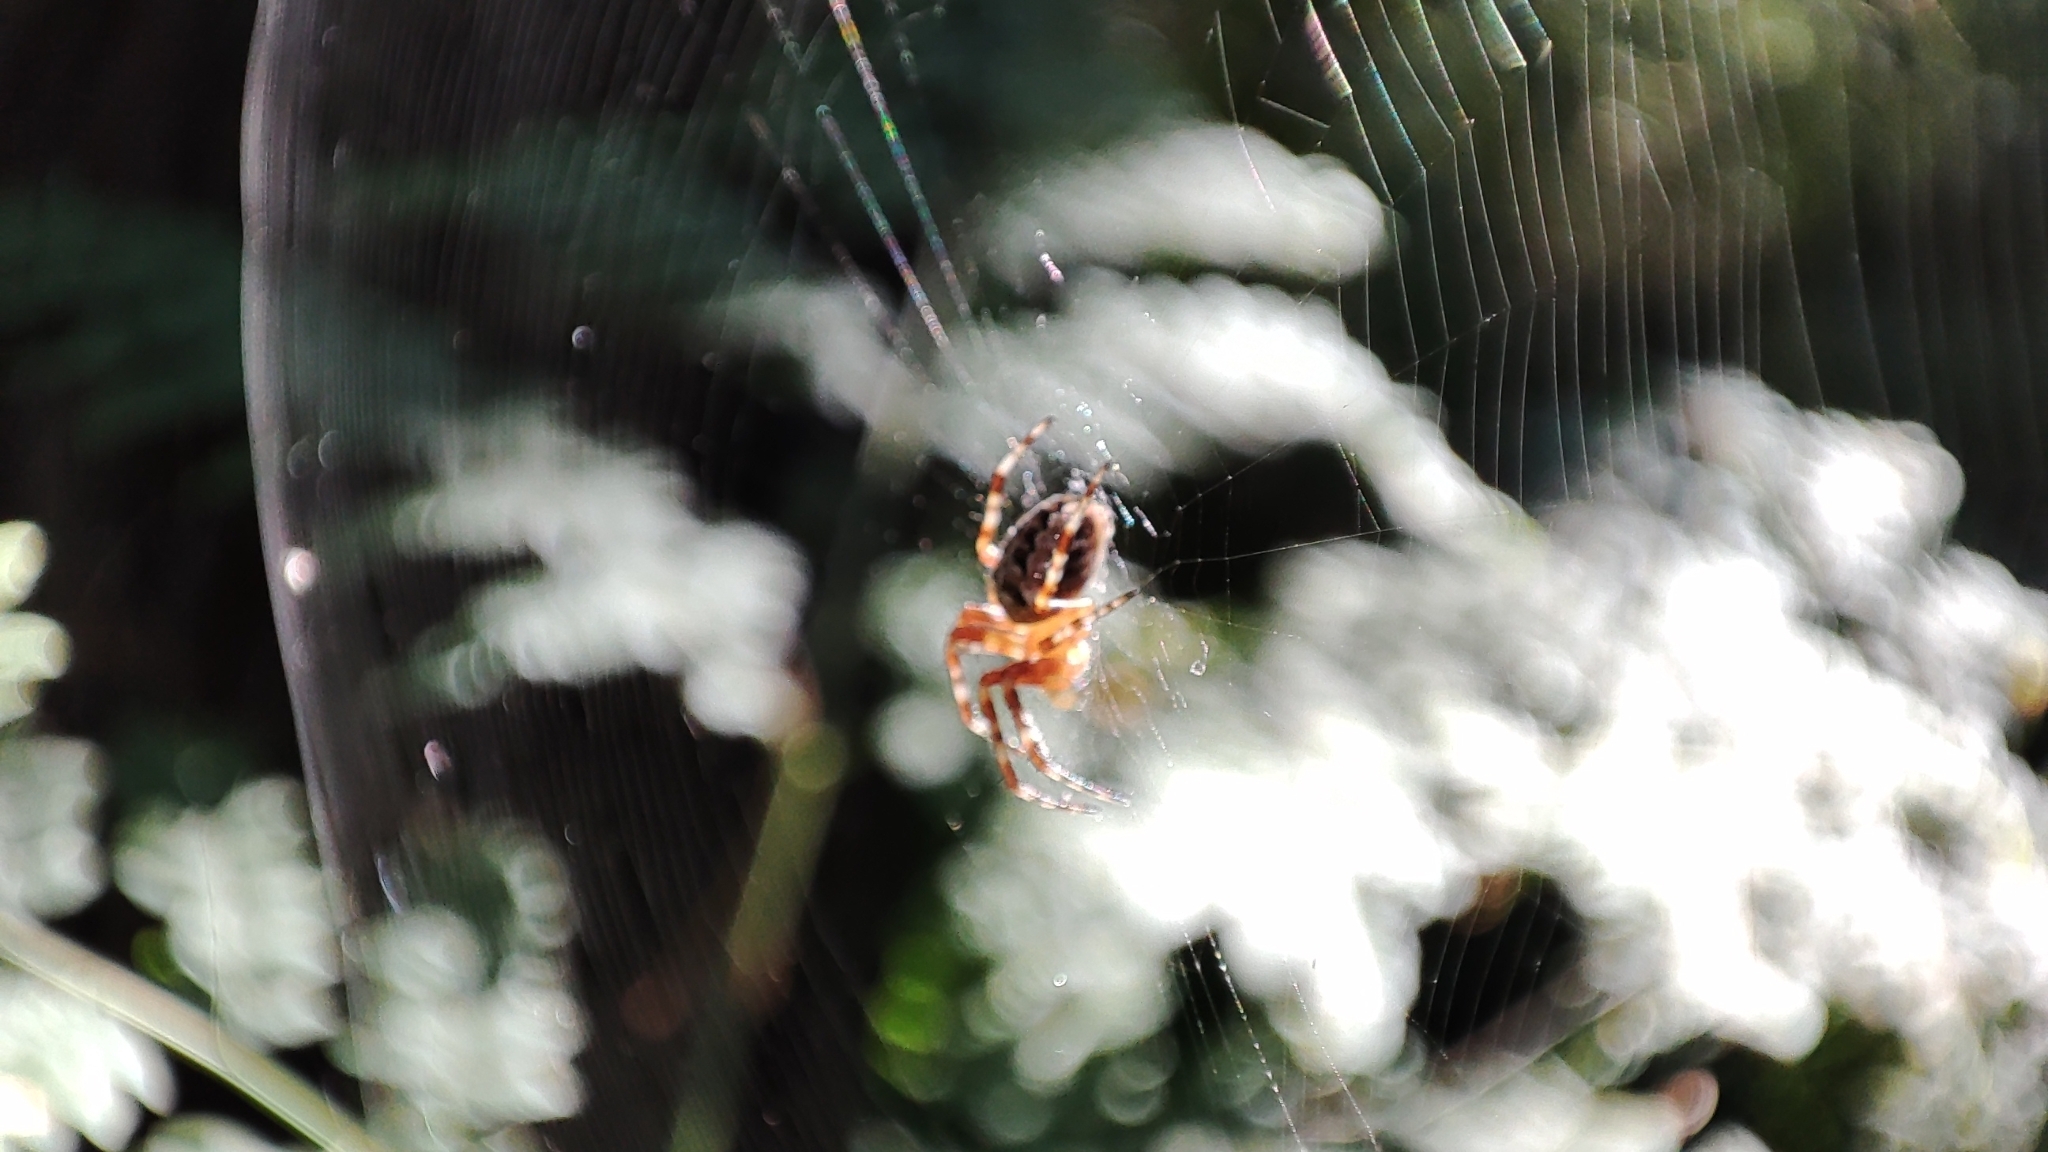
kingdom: Animalia
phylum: Arthropoda
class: Arachnida
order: Araneae
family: Araneidae
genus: Araneus
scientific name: Araneus diadematus
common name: Cross orbweaver
